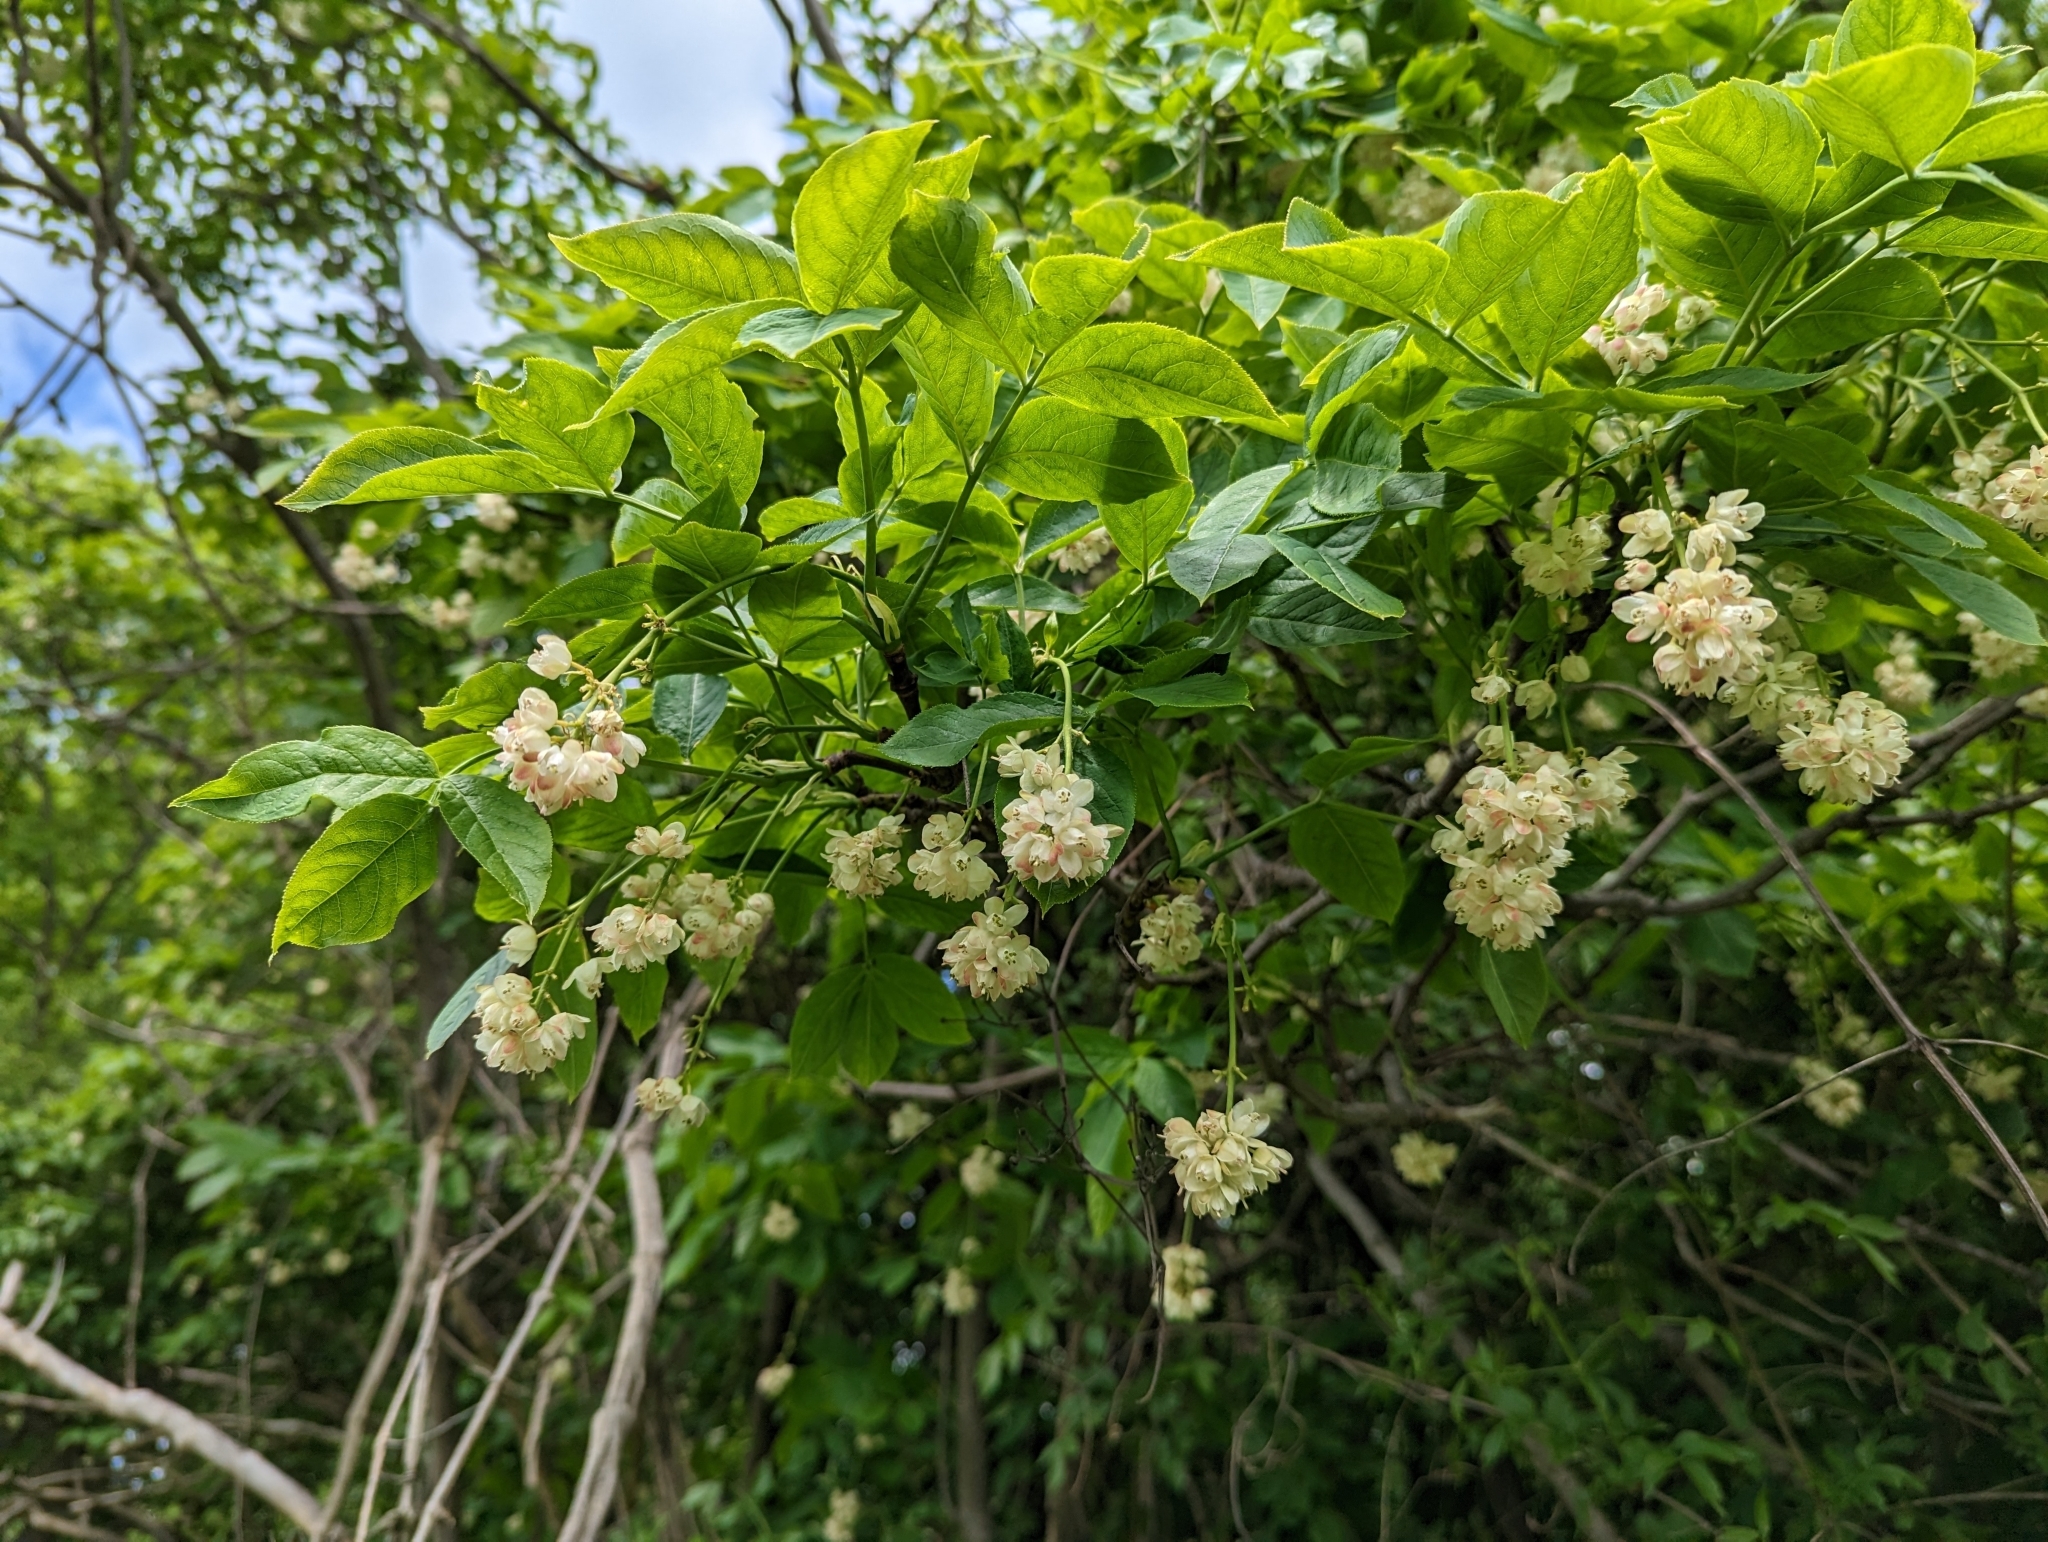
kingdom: Plantae
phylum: Tracheophyta
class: Magnoliopsida
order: Crossosomatales
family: Staphyleaceae
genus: Staphylea
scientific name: Staphylea pinnata
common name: Bladdernut
